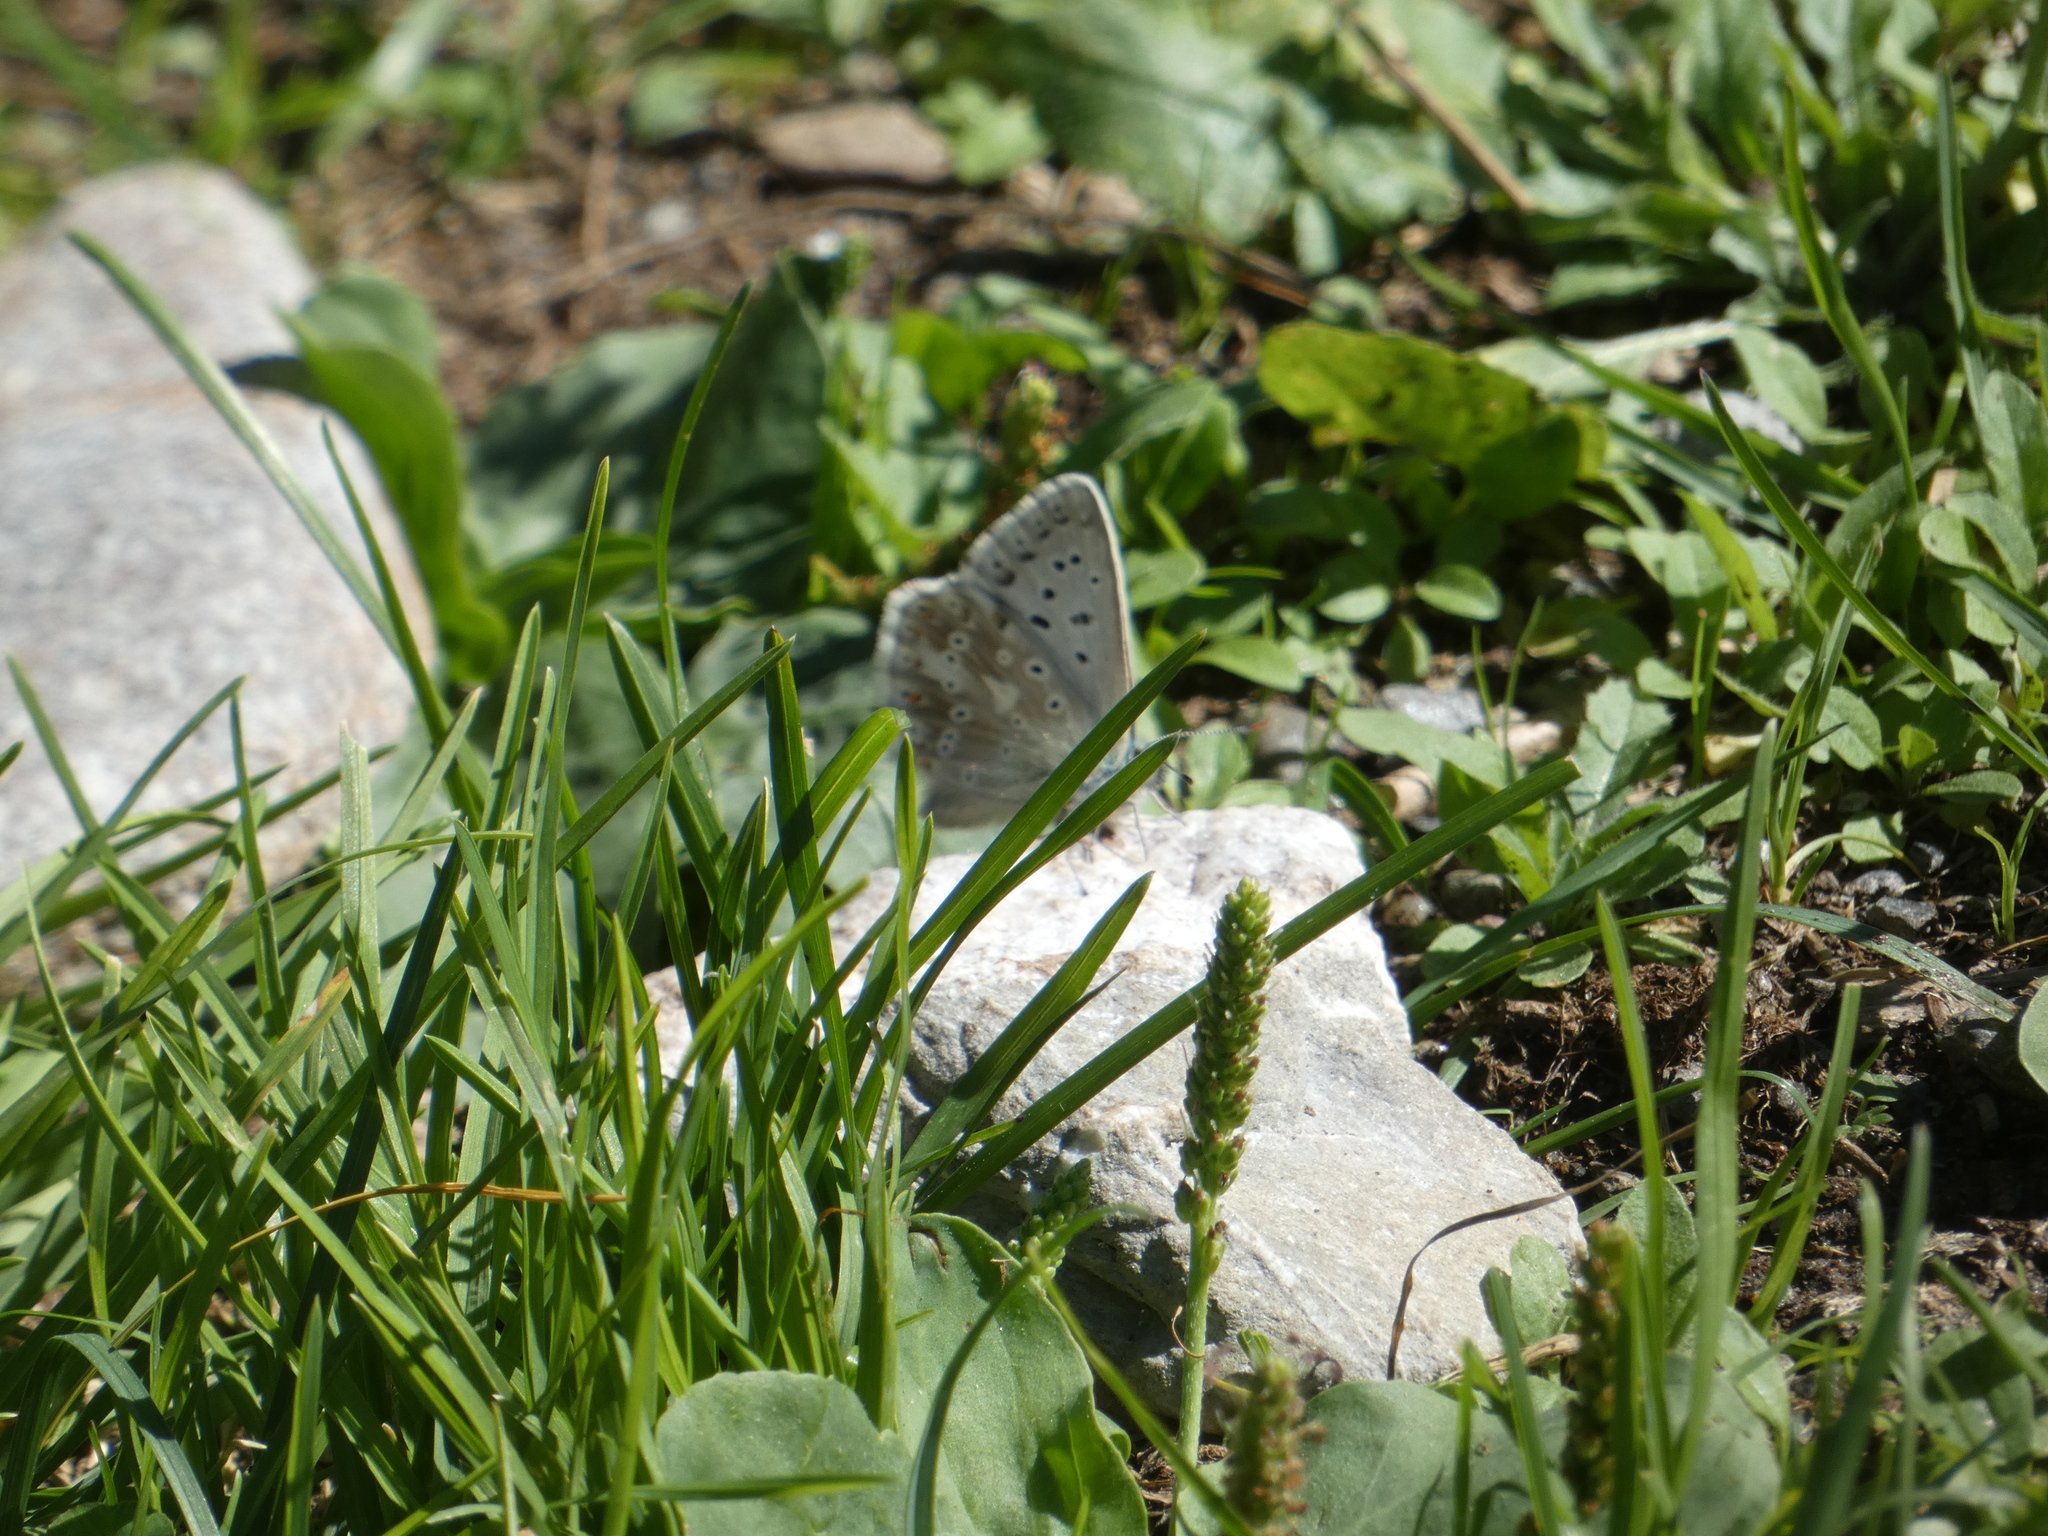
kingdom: Animalia
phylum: Arthropoda
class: Insecta
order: Lepidoptera
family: Lycaenidae
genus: Lysandra
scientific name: Lysandra coridon
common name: Chalkhill blue
